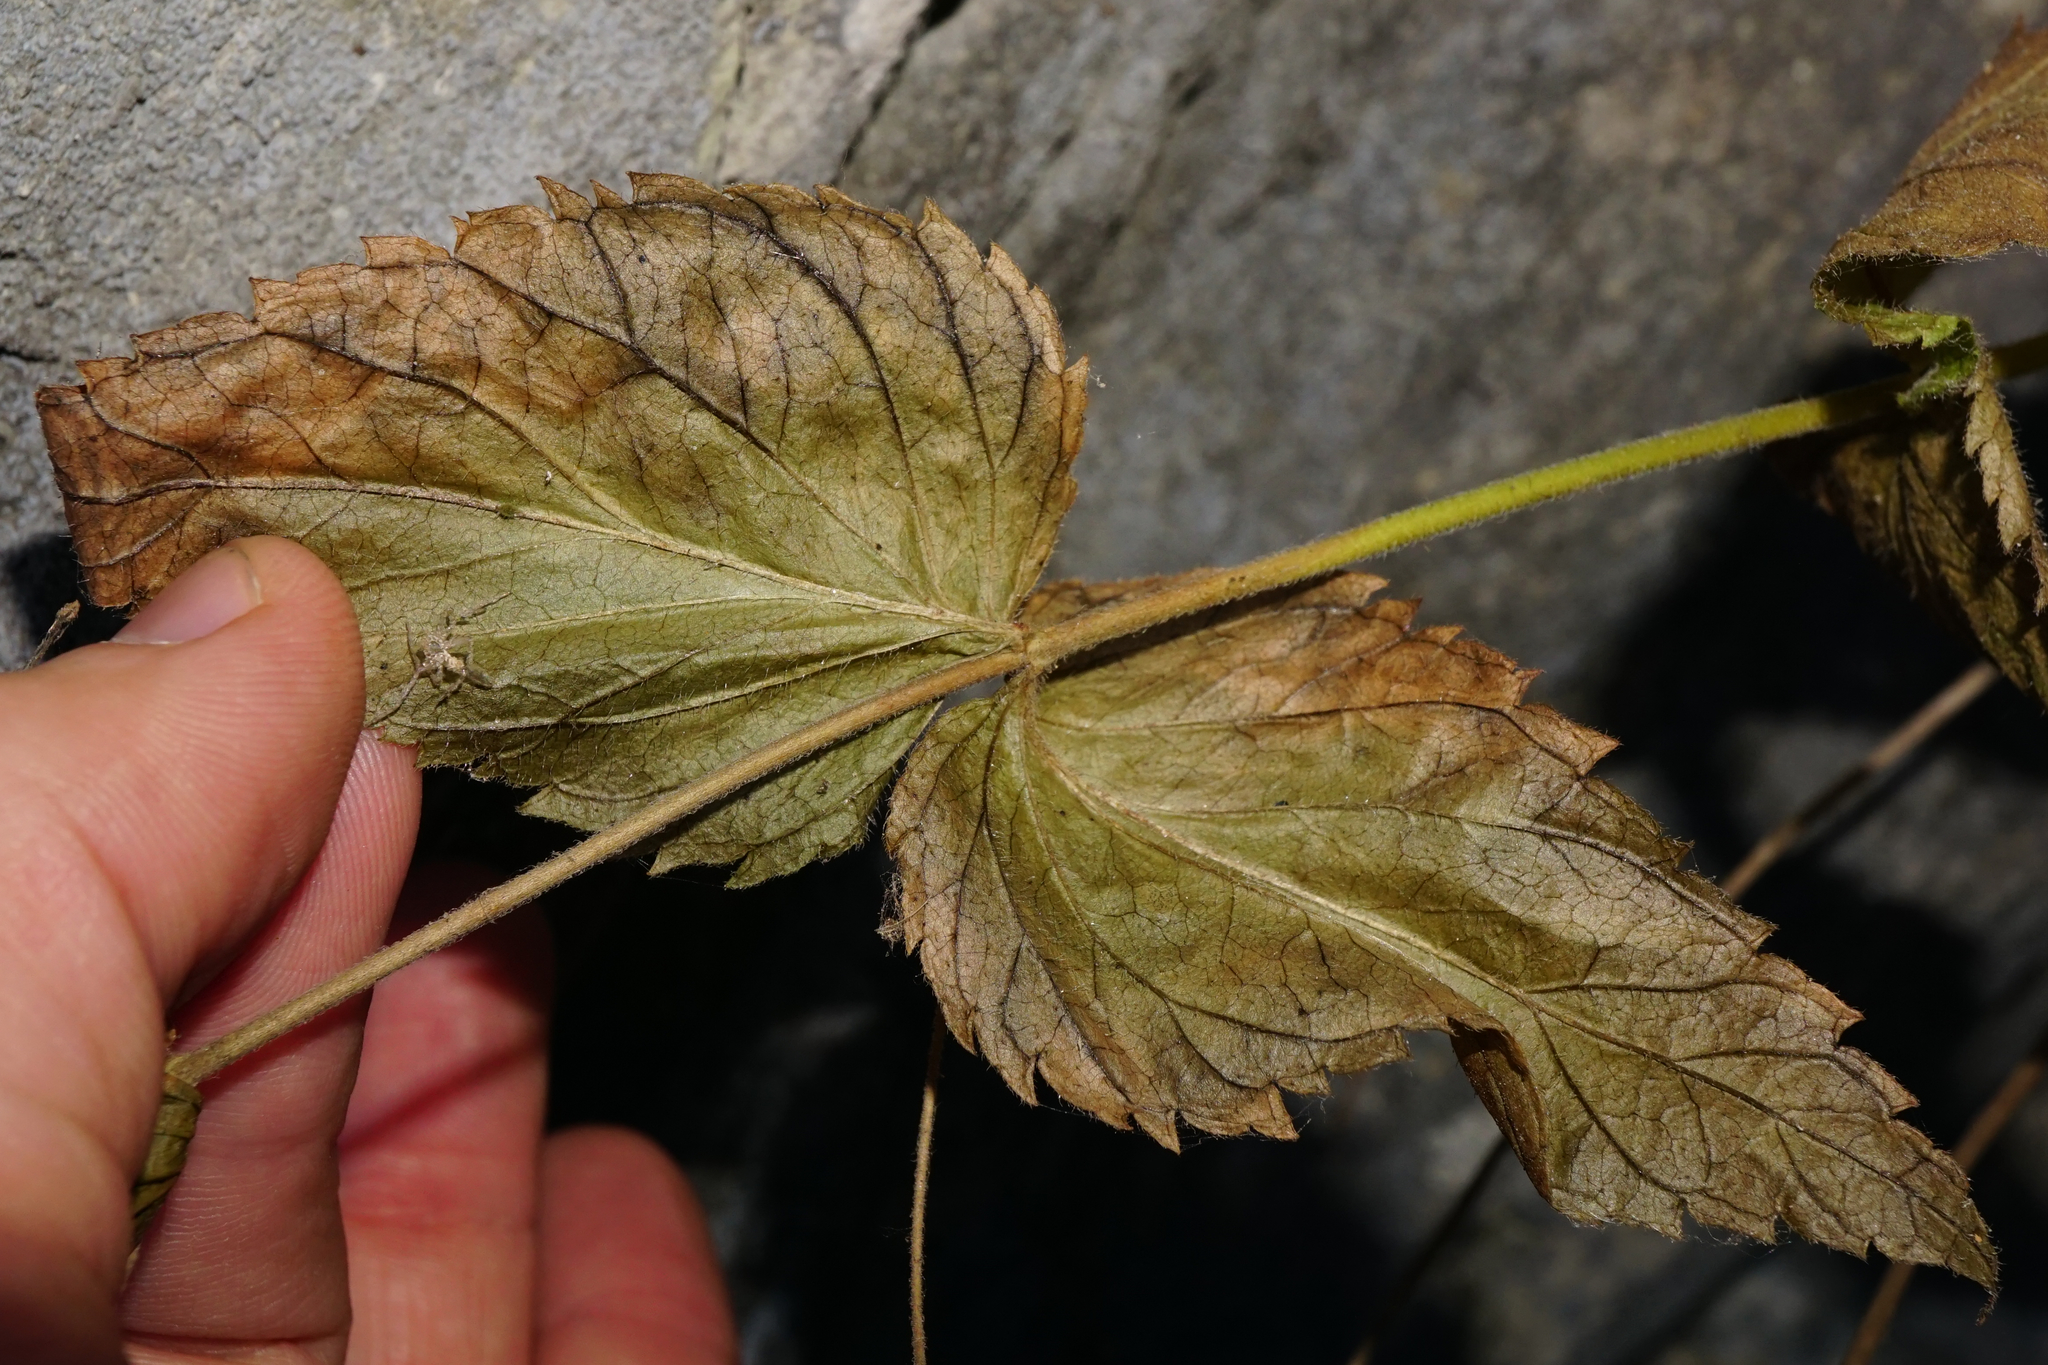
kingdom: Plantae
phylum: Tracheophyta
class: Magnoliopsida
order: Lamiales
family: Plantaginaceae
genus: Veronica
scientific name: Veronica urticifolia
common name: Nettle-leaf speedwell
